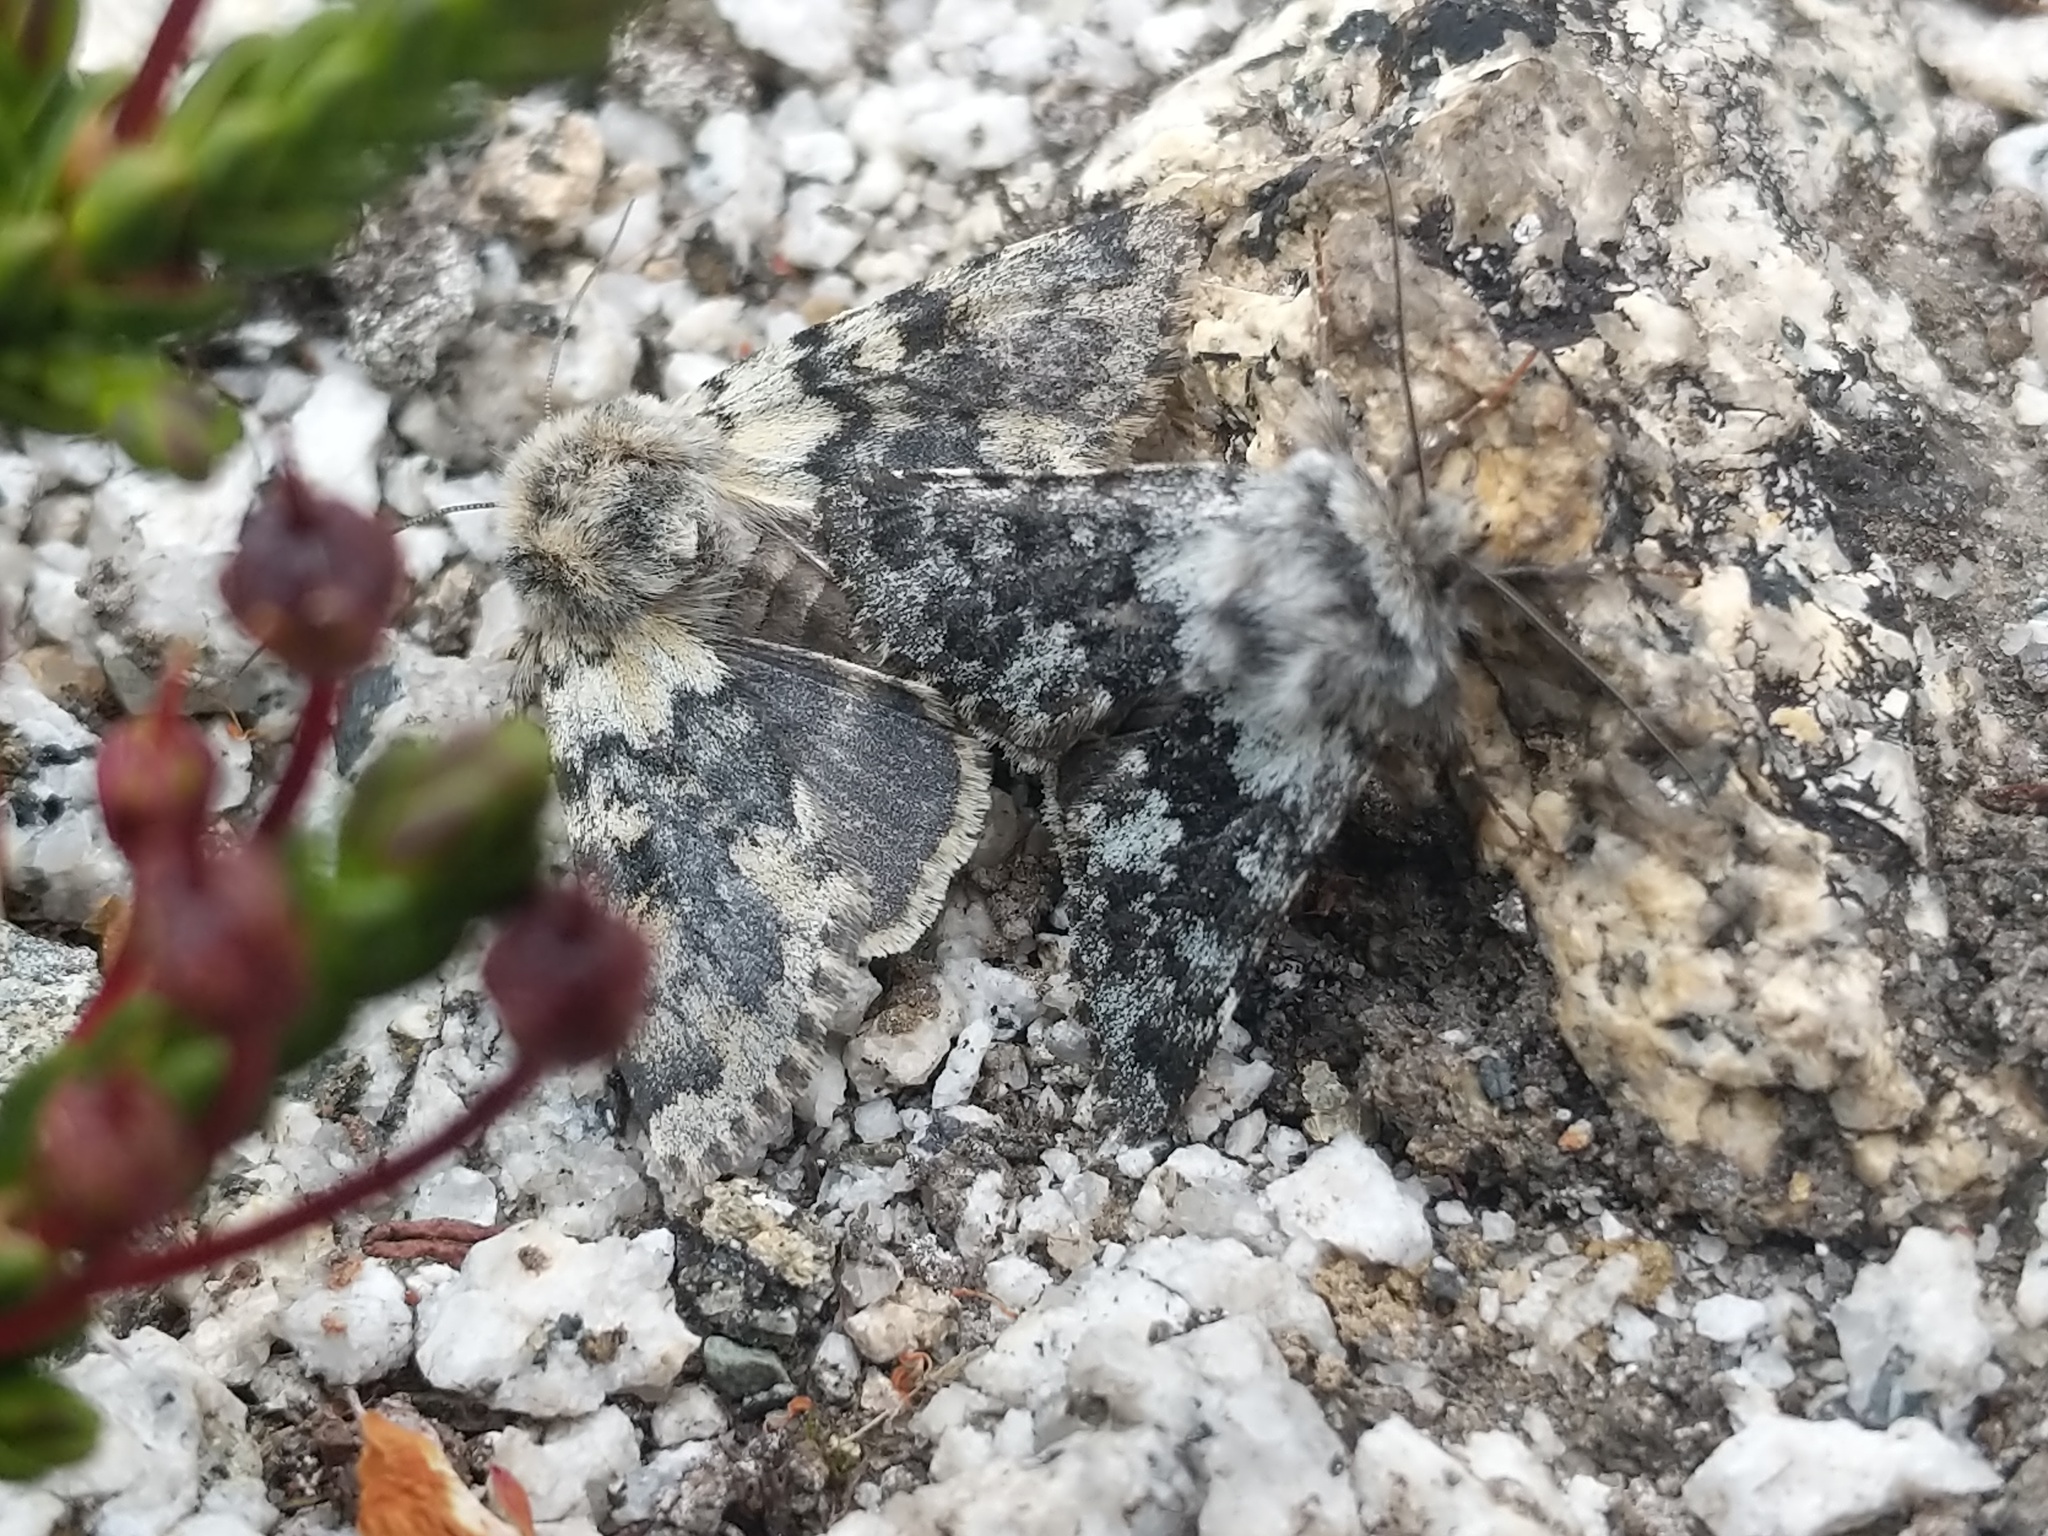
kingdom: Animalia
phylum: Arthropoda
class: Insecta
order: Lepidoptera
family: Noctuidae
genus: Lasionycta
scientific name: Lasionycta caesia
